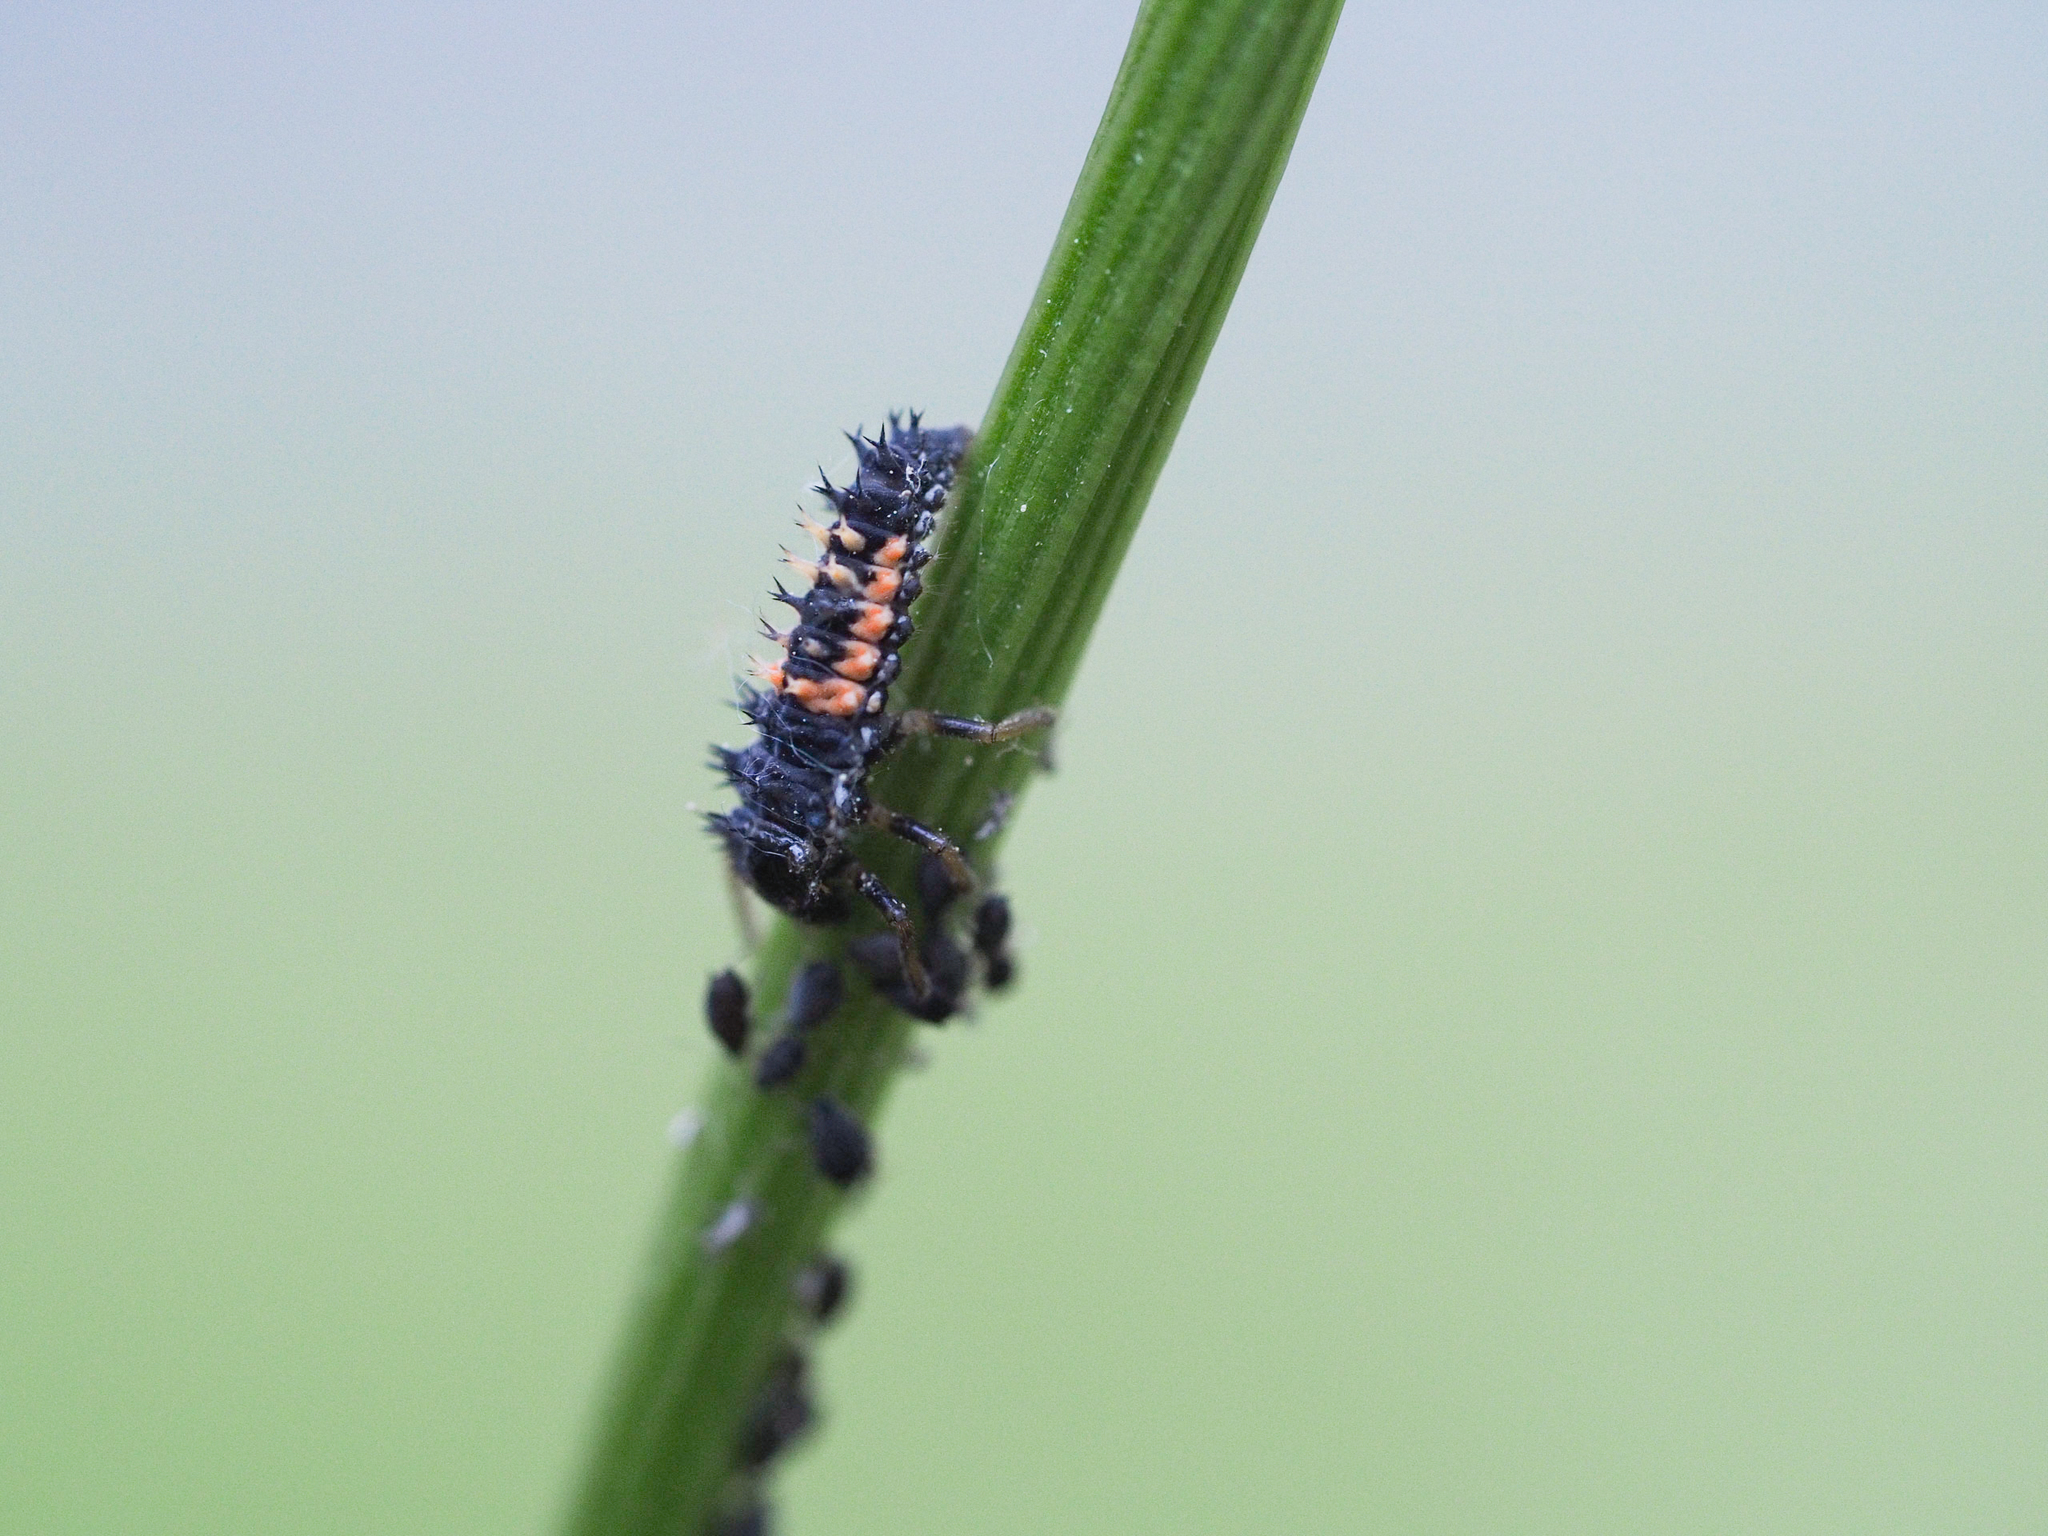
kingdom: Animalia
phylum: Arthropoda
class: Insecta
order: Coleoptera
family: Coccinellidae
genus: Harmonia
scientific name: Harmonia axyridis
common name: Harlequin ladybird
